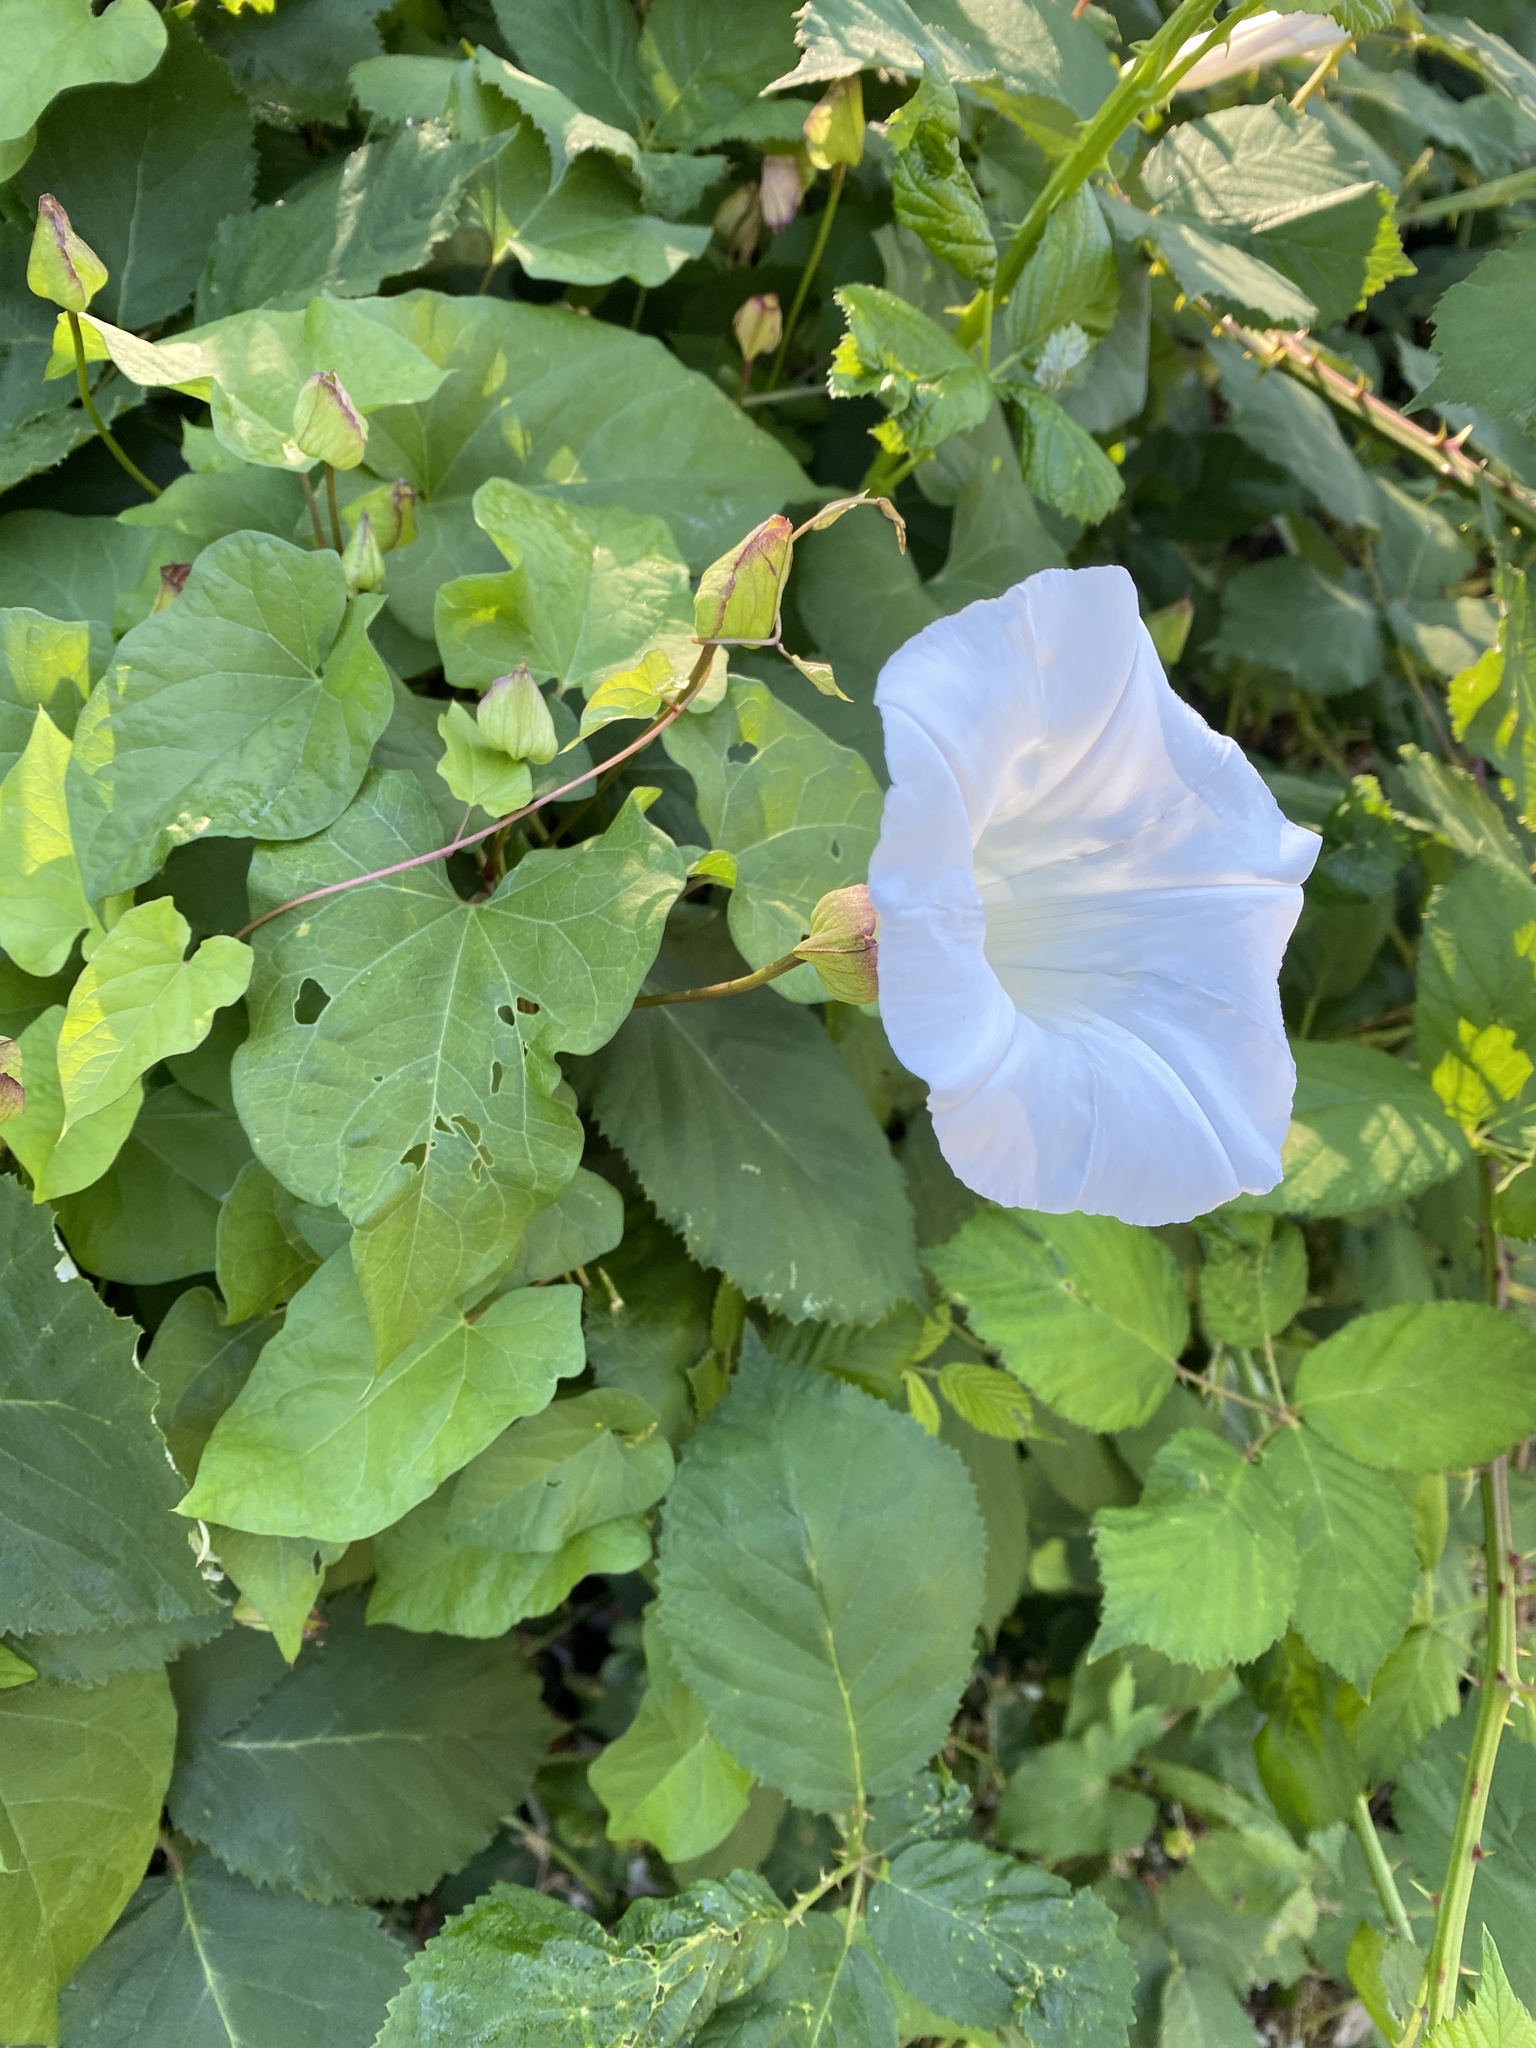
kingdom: Plantae
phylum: Tracheophyta
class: Magnoliopsida
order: Solanales
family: Convolvulaceae
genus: Calystegia
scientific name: Calystegia silvatica
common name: Large bindweed
